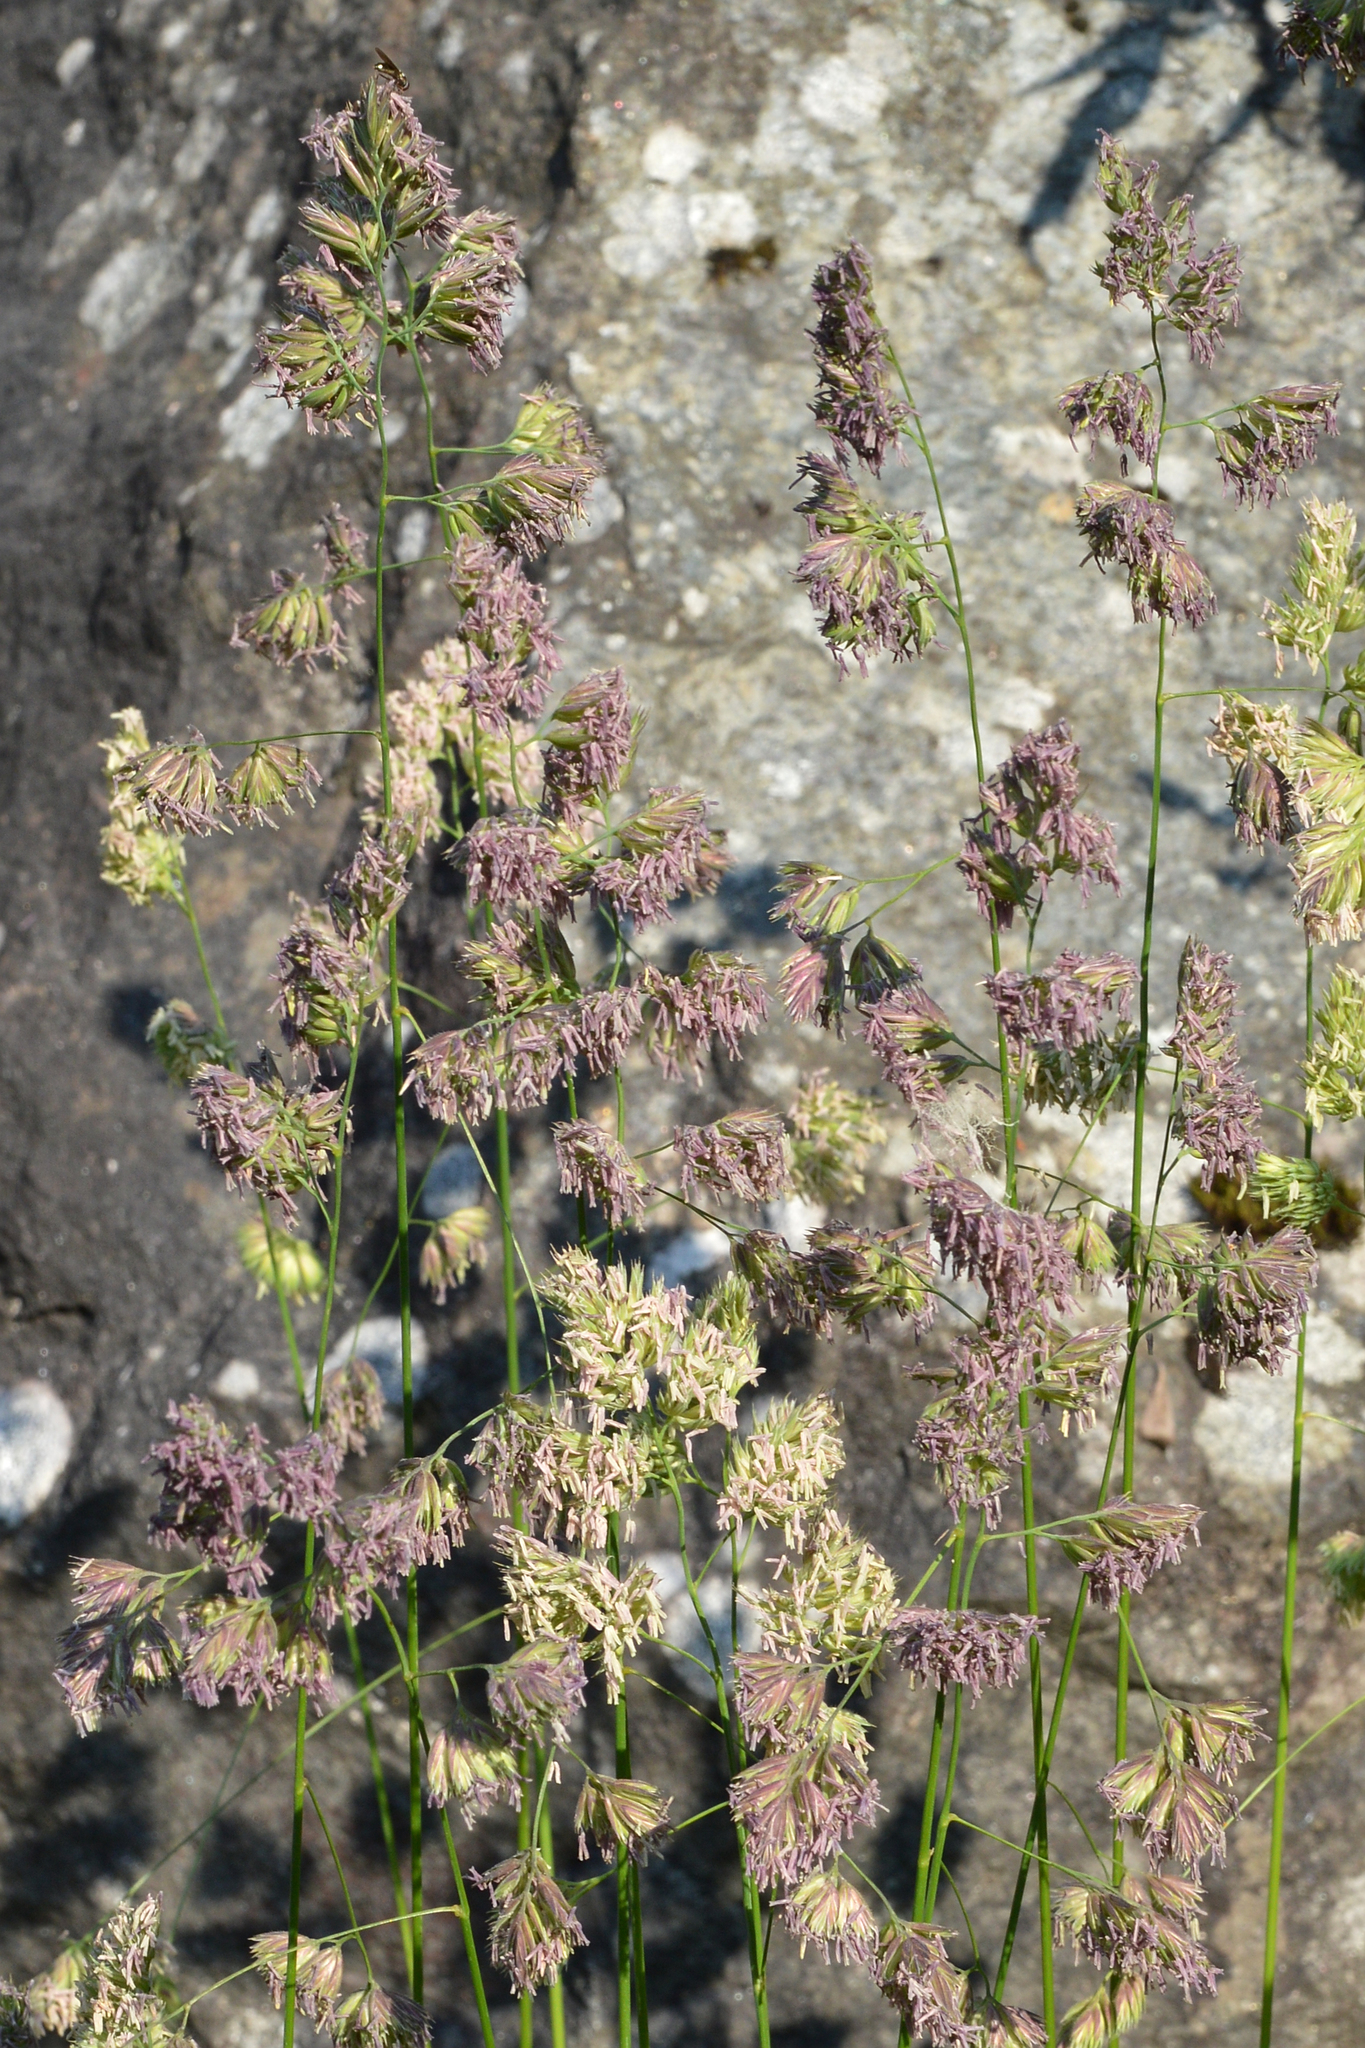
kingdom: Plantae
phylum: Tracheophyta
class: Liliopsida
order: Poales
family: Poaceae
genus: Dactylis
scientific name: Dactylis glomerata
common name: Orchardgrass
